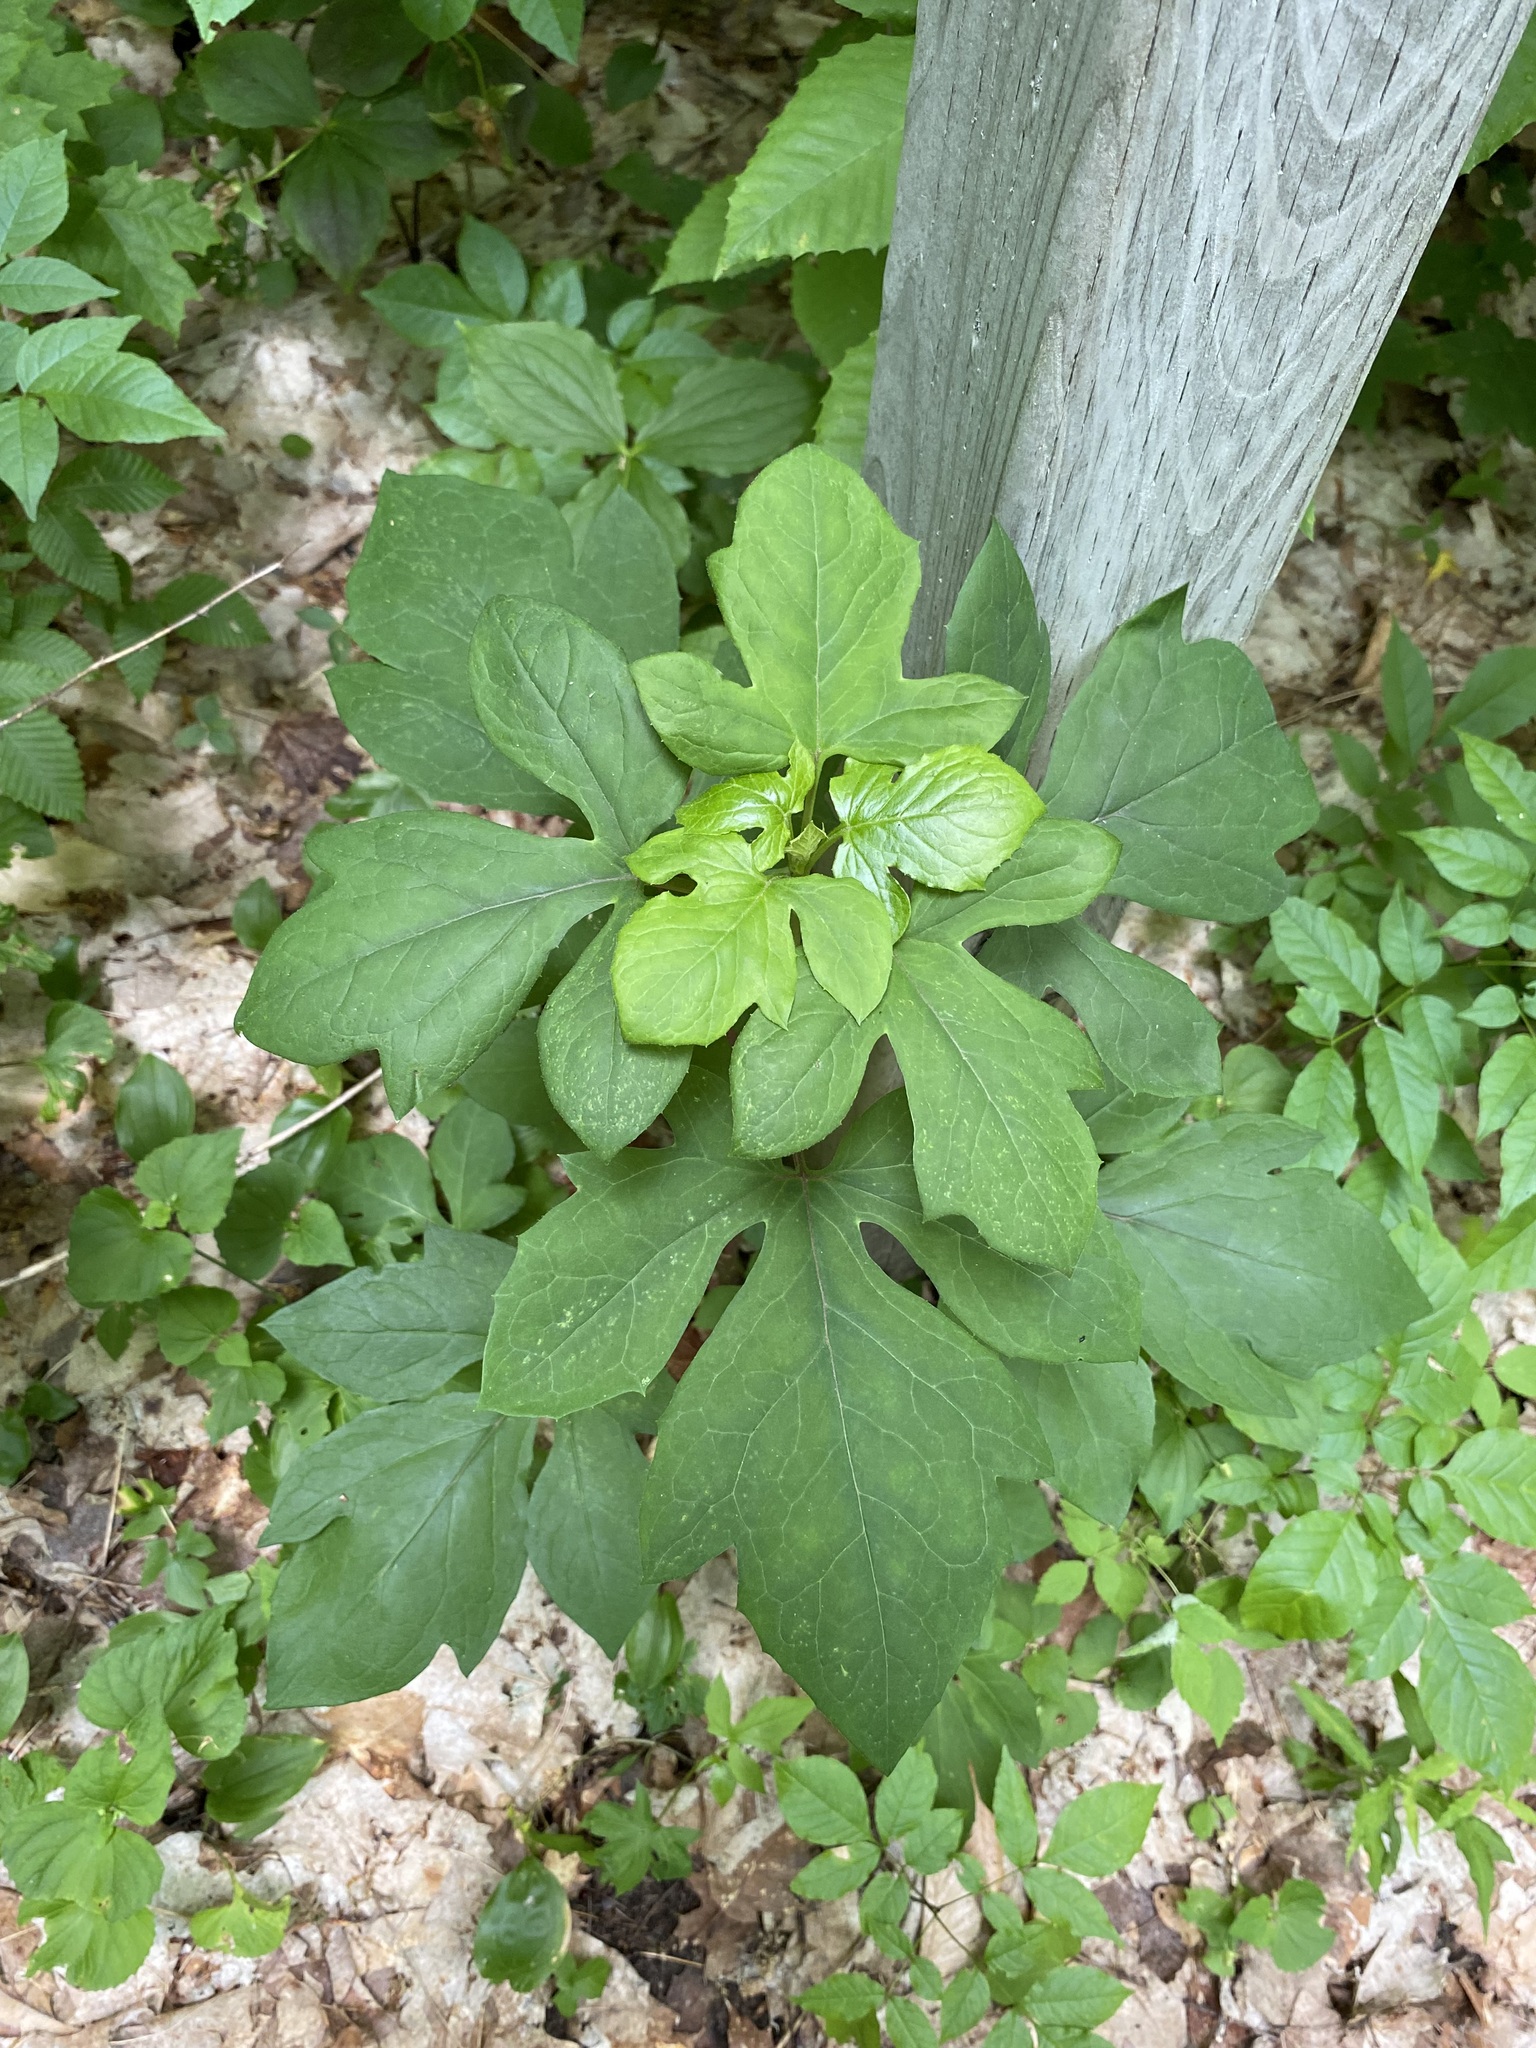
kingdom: Plantae
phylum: Tracheophyta
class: Magnoliopsida
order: Asterales
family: Asteraceae
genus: Nabalus
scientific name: Nabalus altissima
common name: Tall rattlesnakeroot
